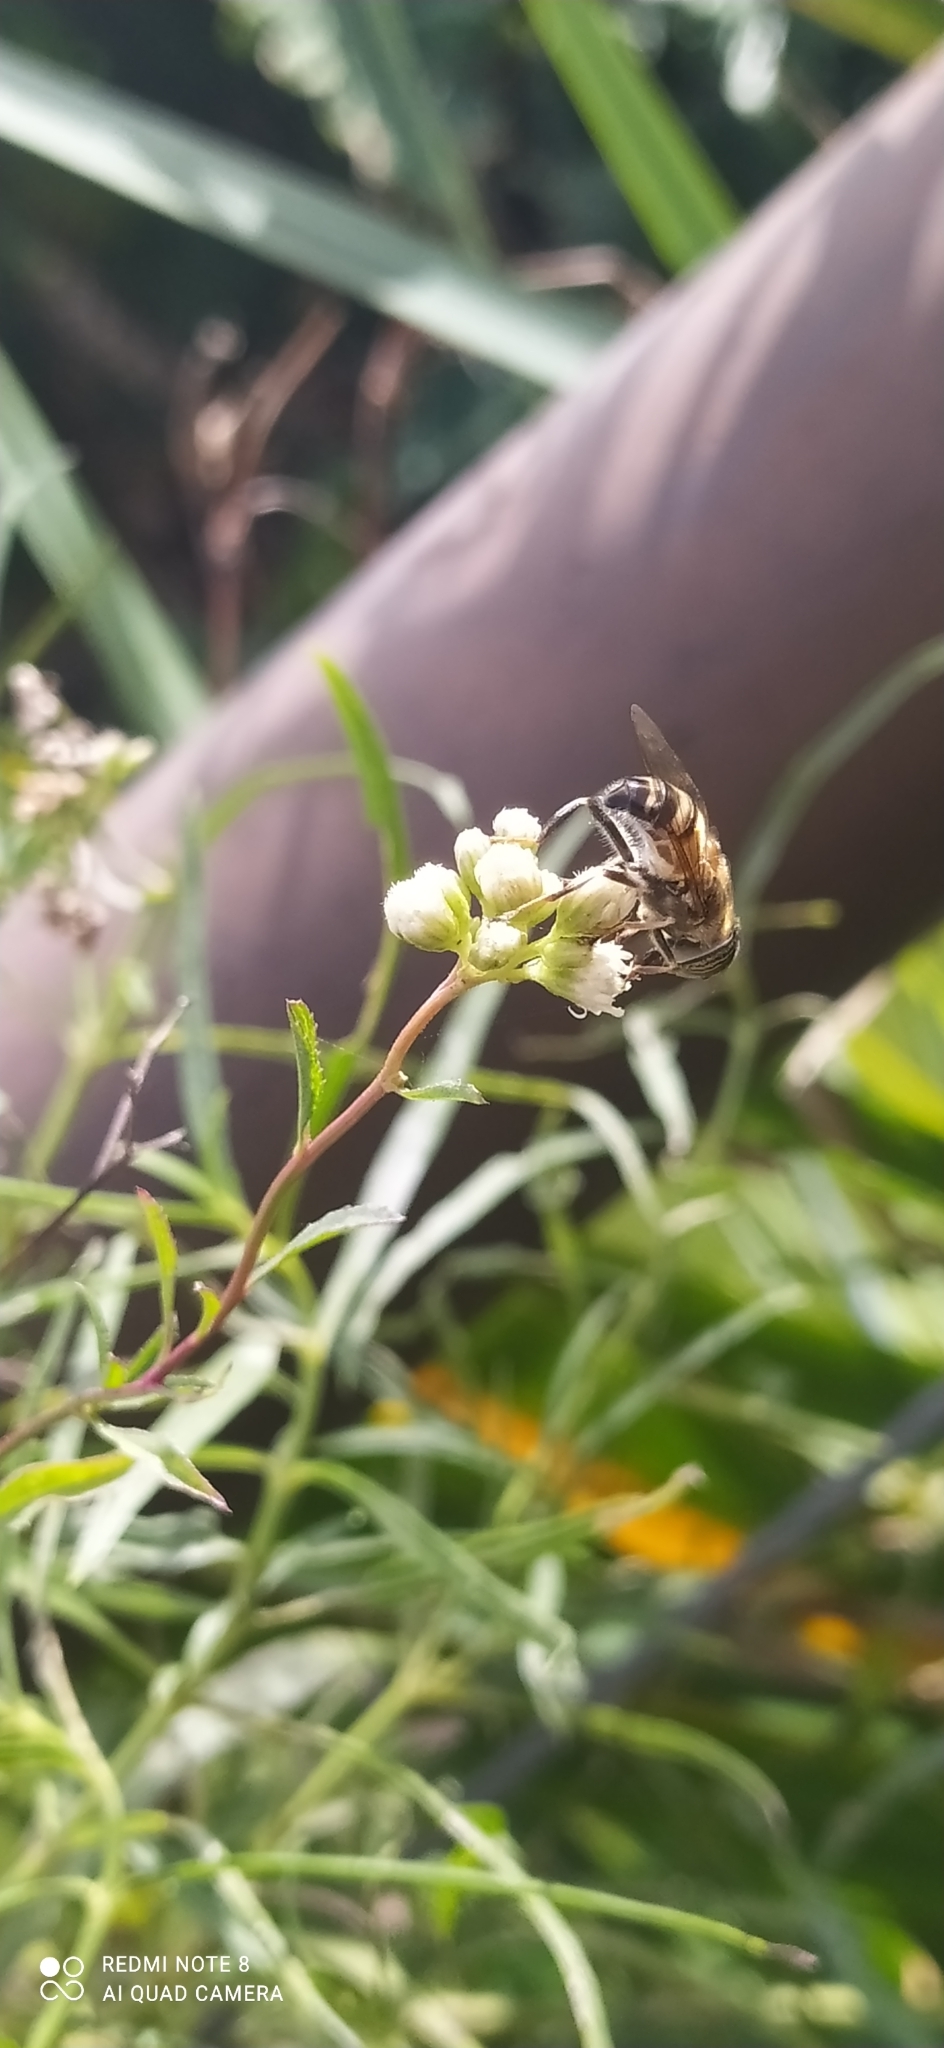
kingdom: Animalia
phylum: Arthropoda
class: Insecta
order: Diptera
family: Syrphidae
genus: Eristalinus
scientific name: Eristalinus taeniops
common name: Syrphid fly
